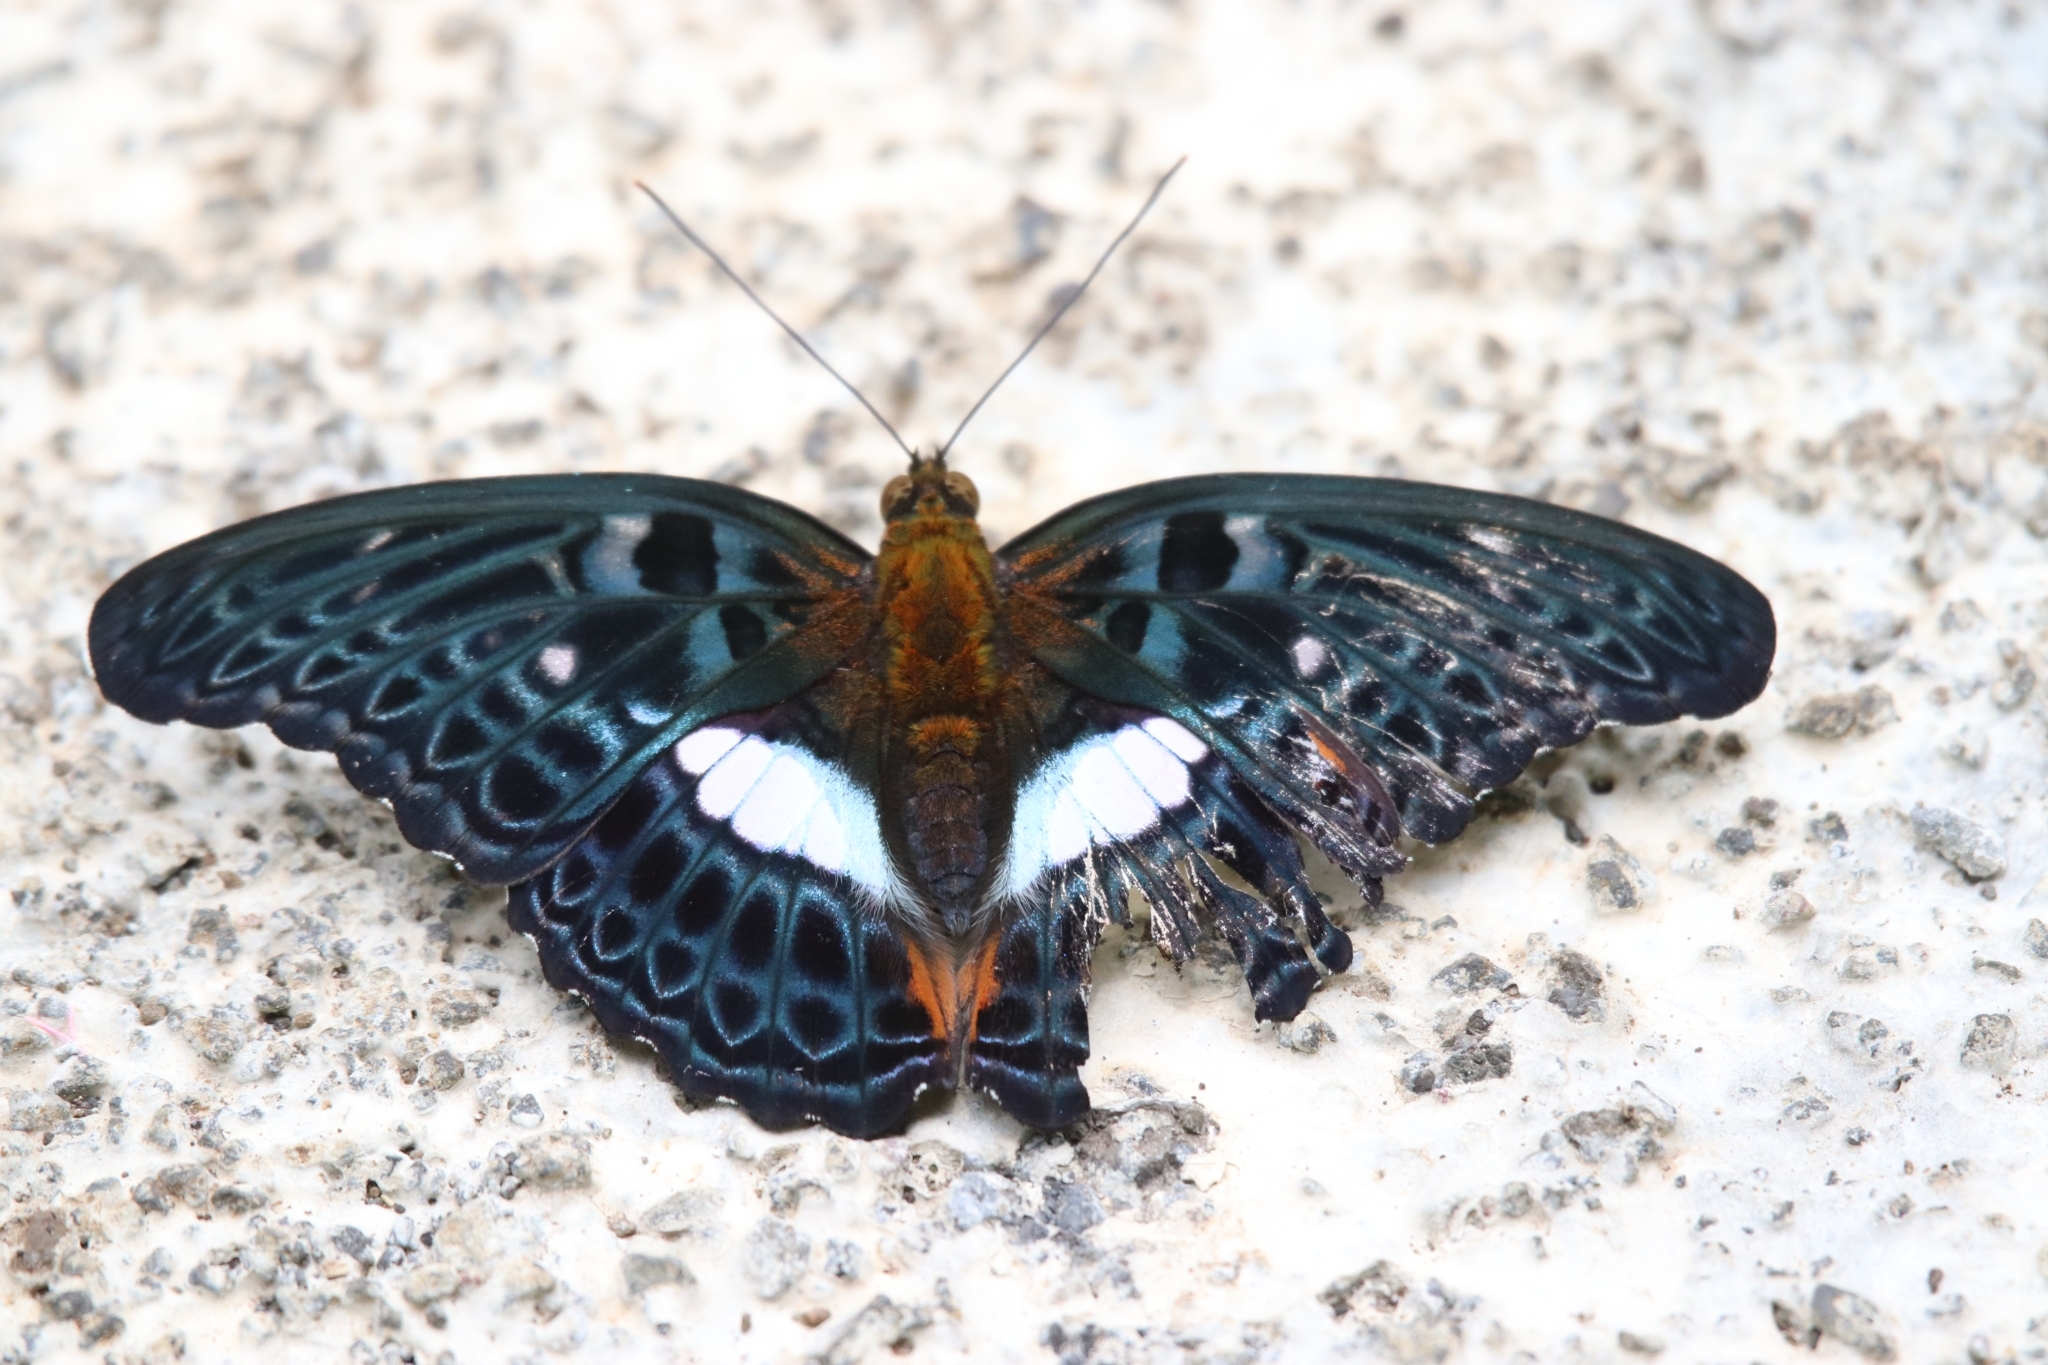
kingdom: Animalia
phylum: Arthropoda
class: Insecta
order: Lepidoptera
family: Nymphalidae
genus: Limenitis
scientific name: Limenitis
